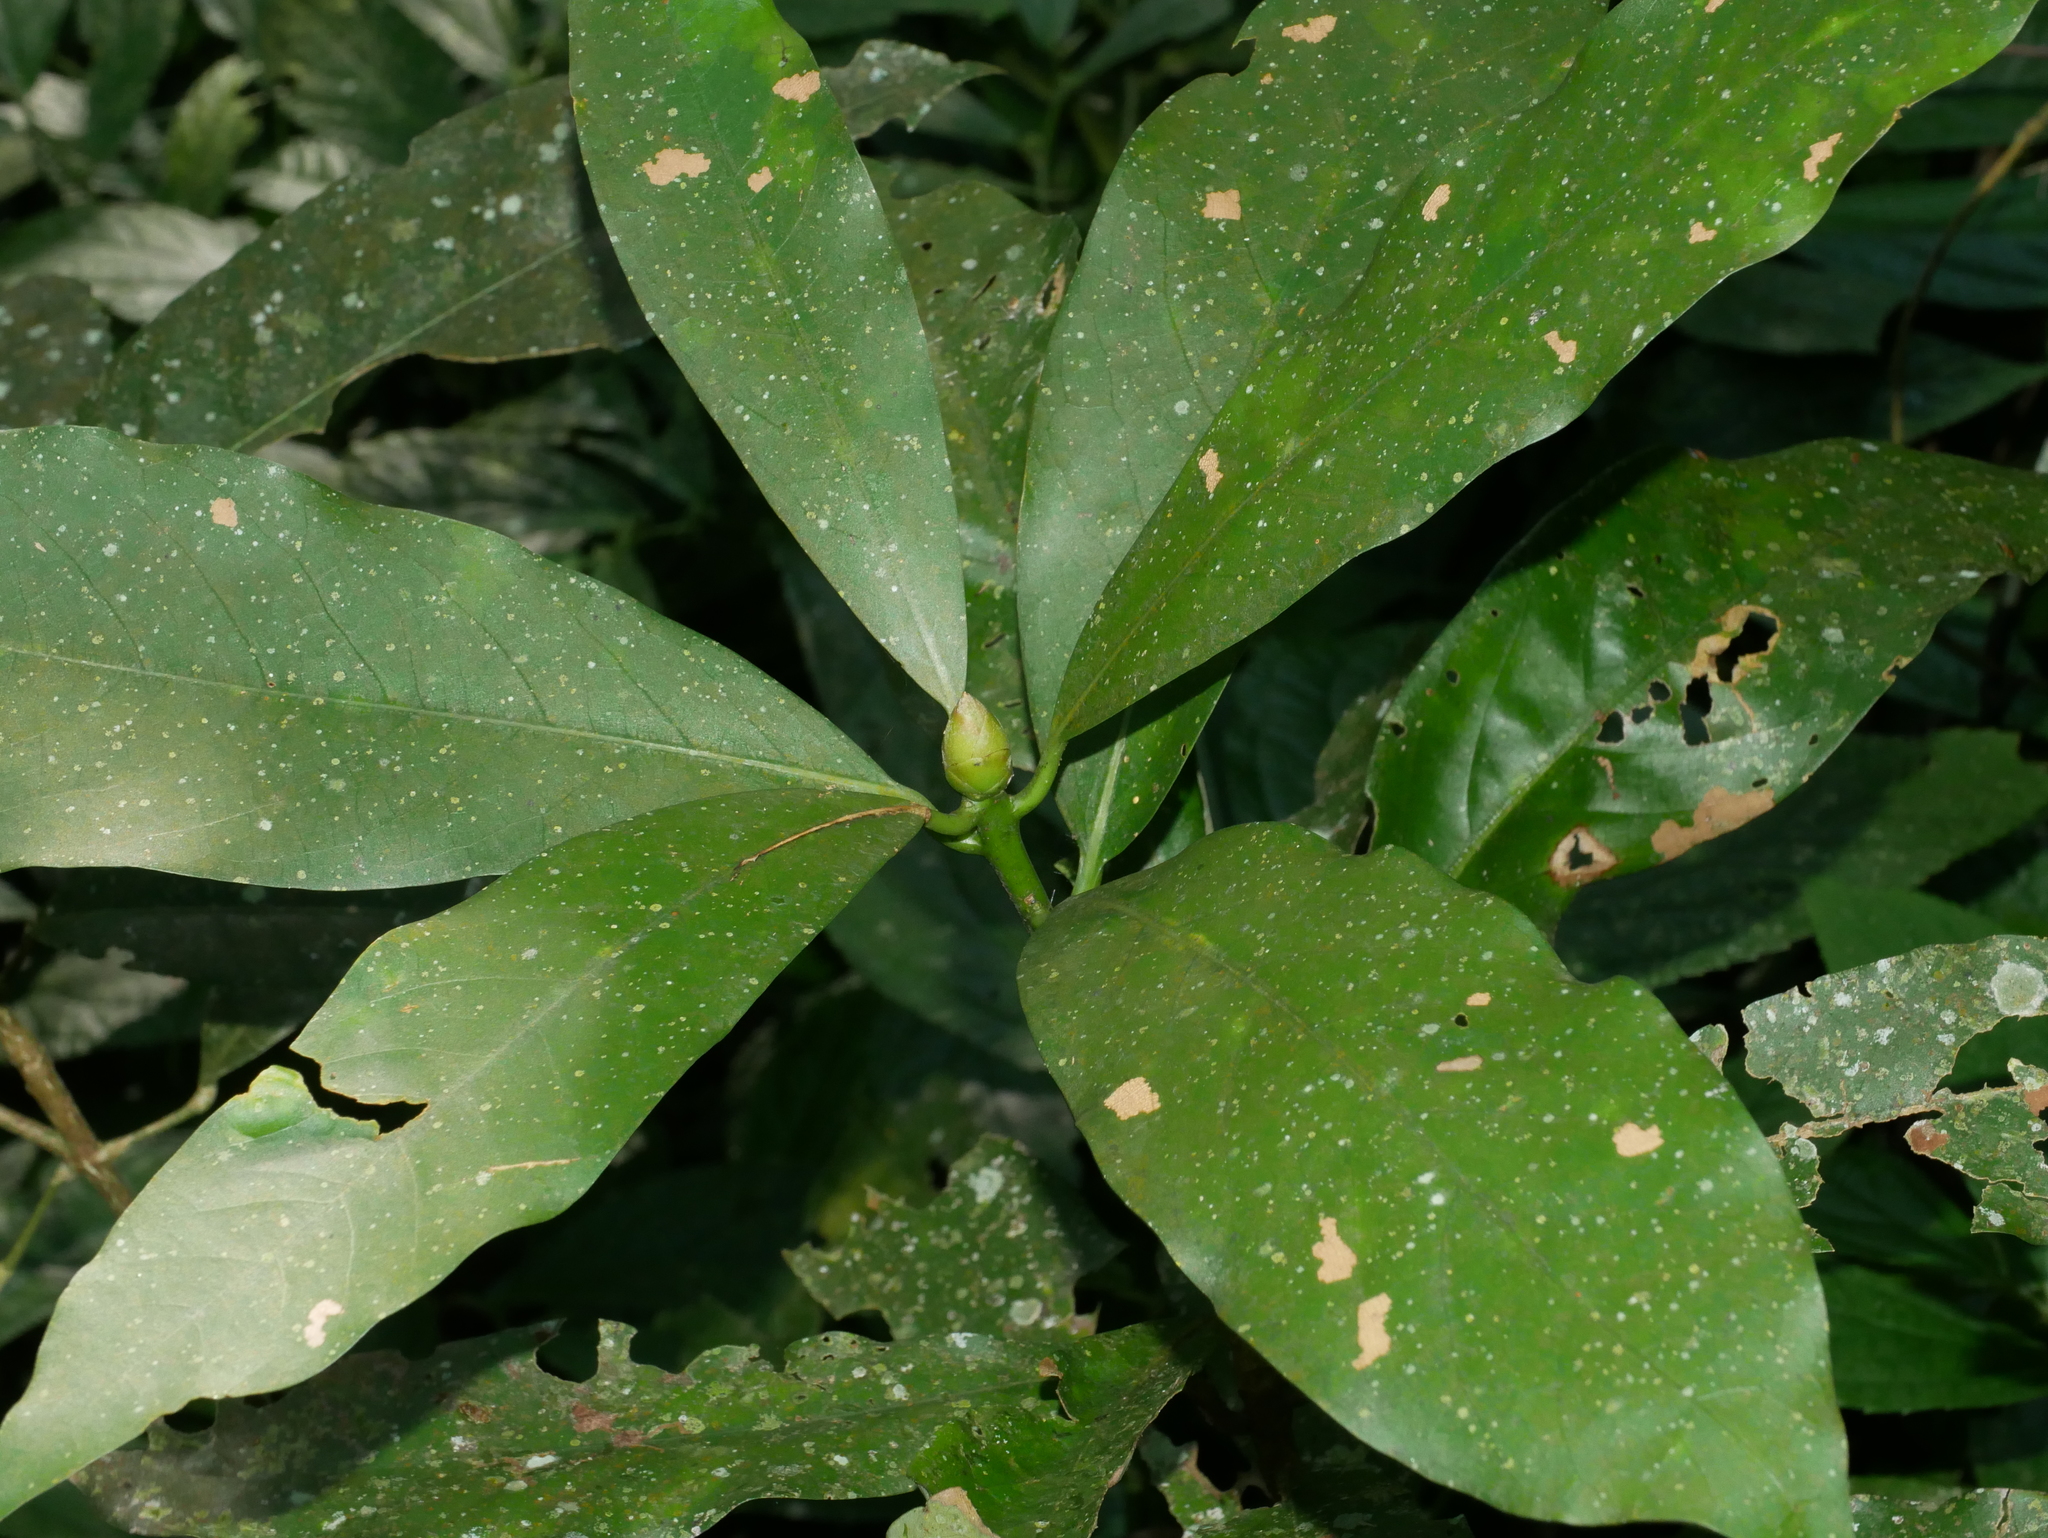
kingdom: Plantae
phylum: Tracheophyta
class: Magnoliopsida
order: Laurales
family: Lauraceae
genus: Machilus
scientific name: Machilus japonica
